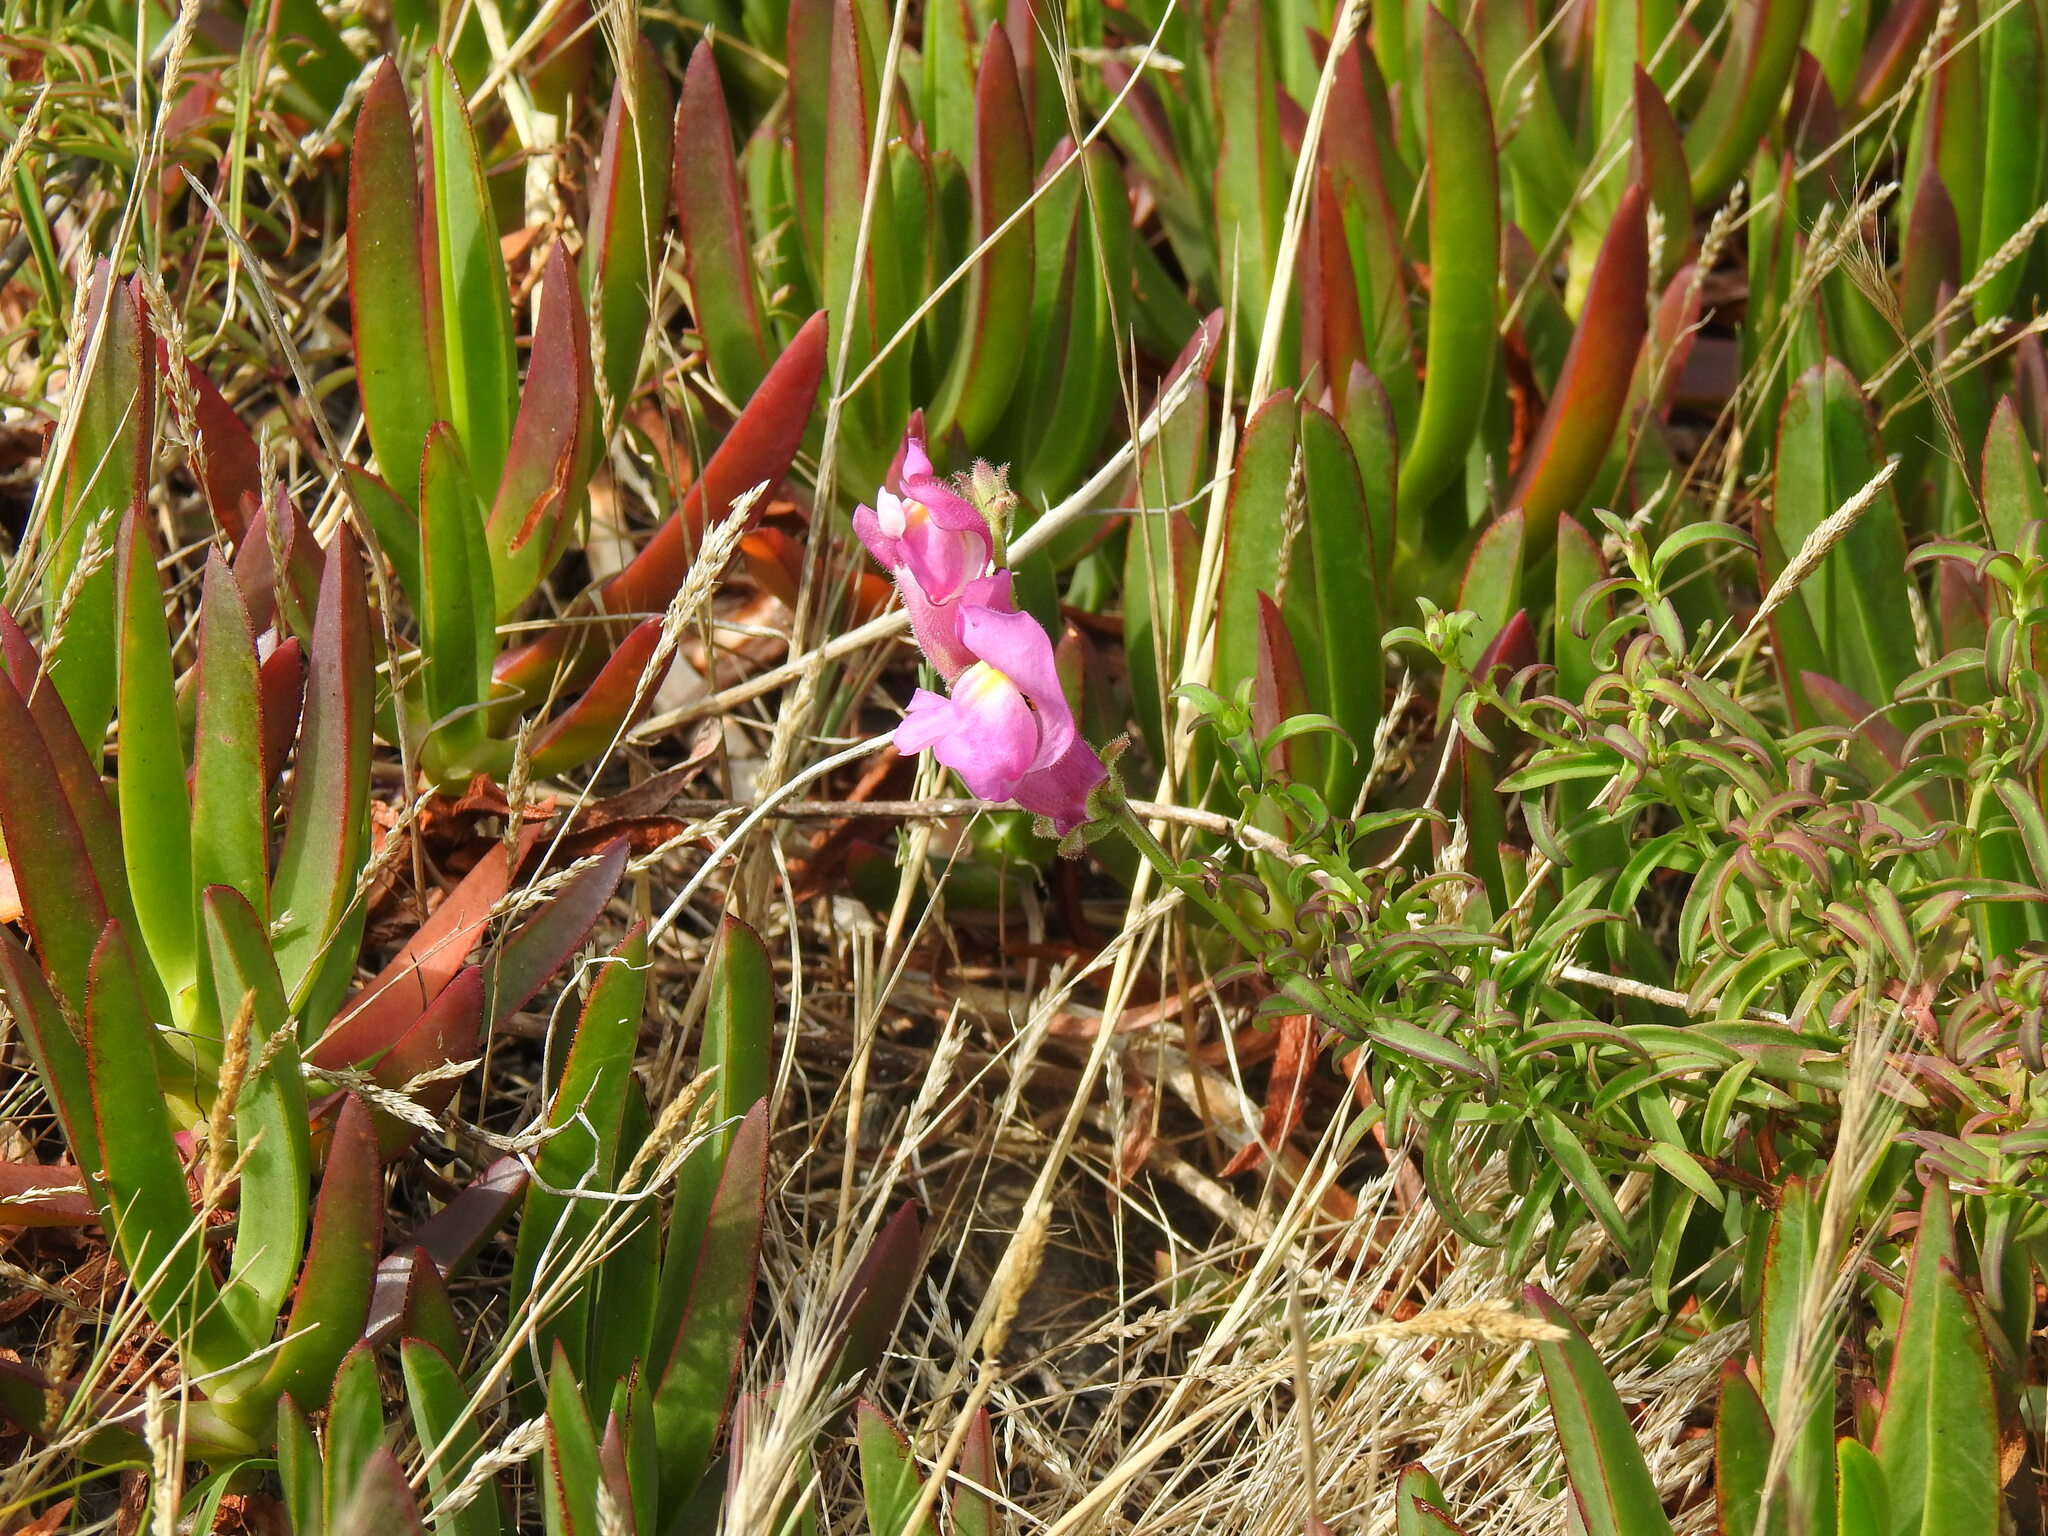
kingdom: Plantae
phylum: Tracheophyta
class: Magnoliopsida
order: Lamiales
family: Plantaginaceae
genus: Antirrhinum
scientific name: Antirrhinum cirrhigerum
